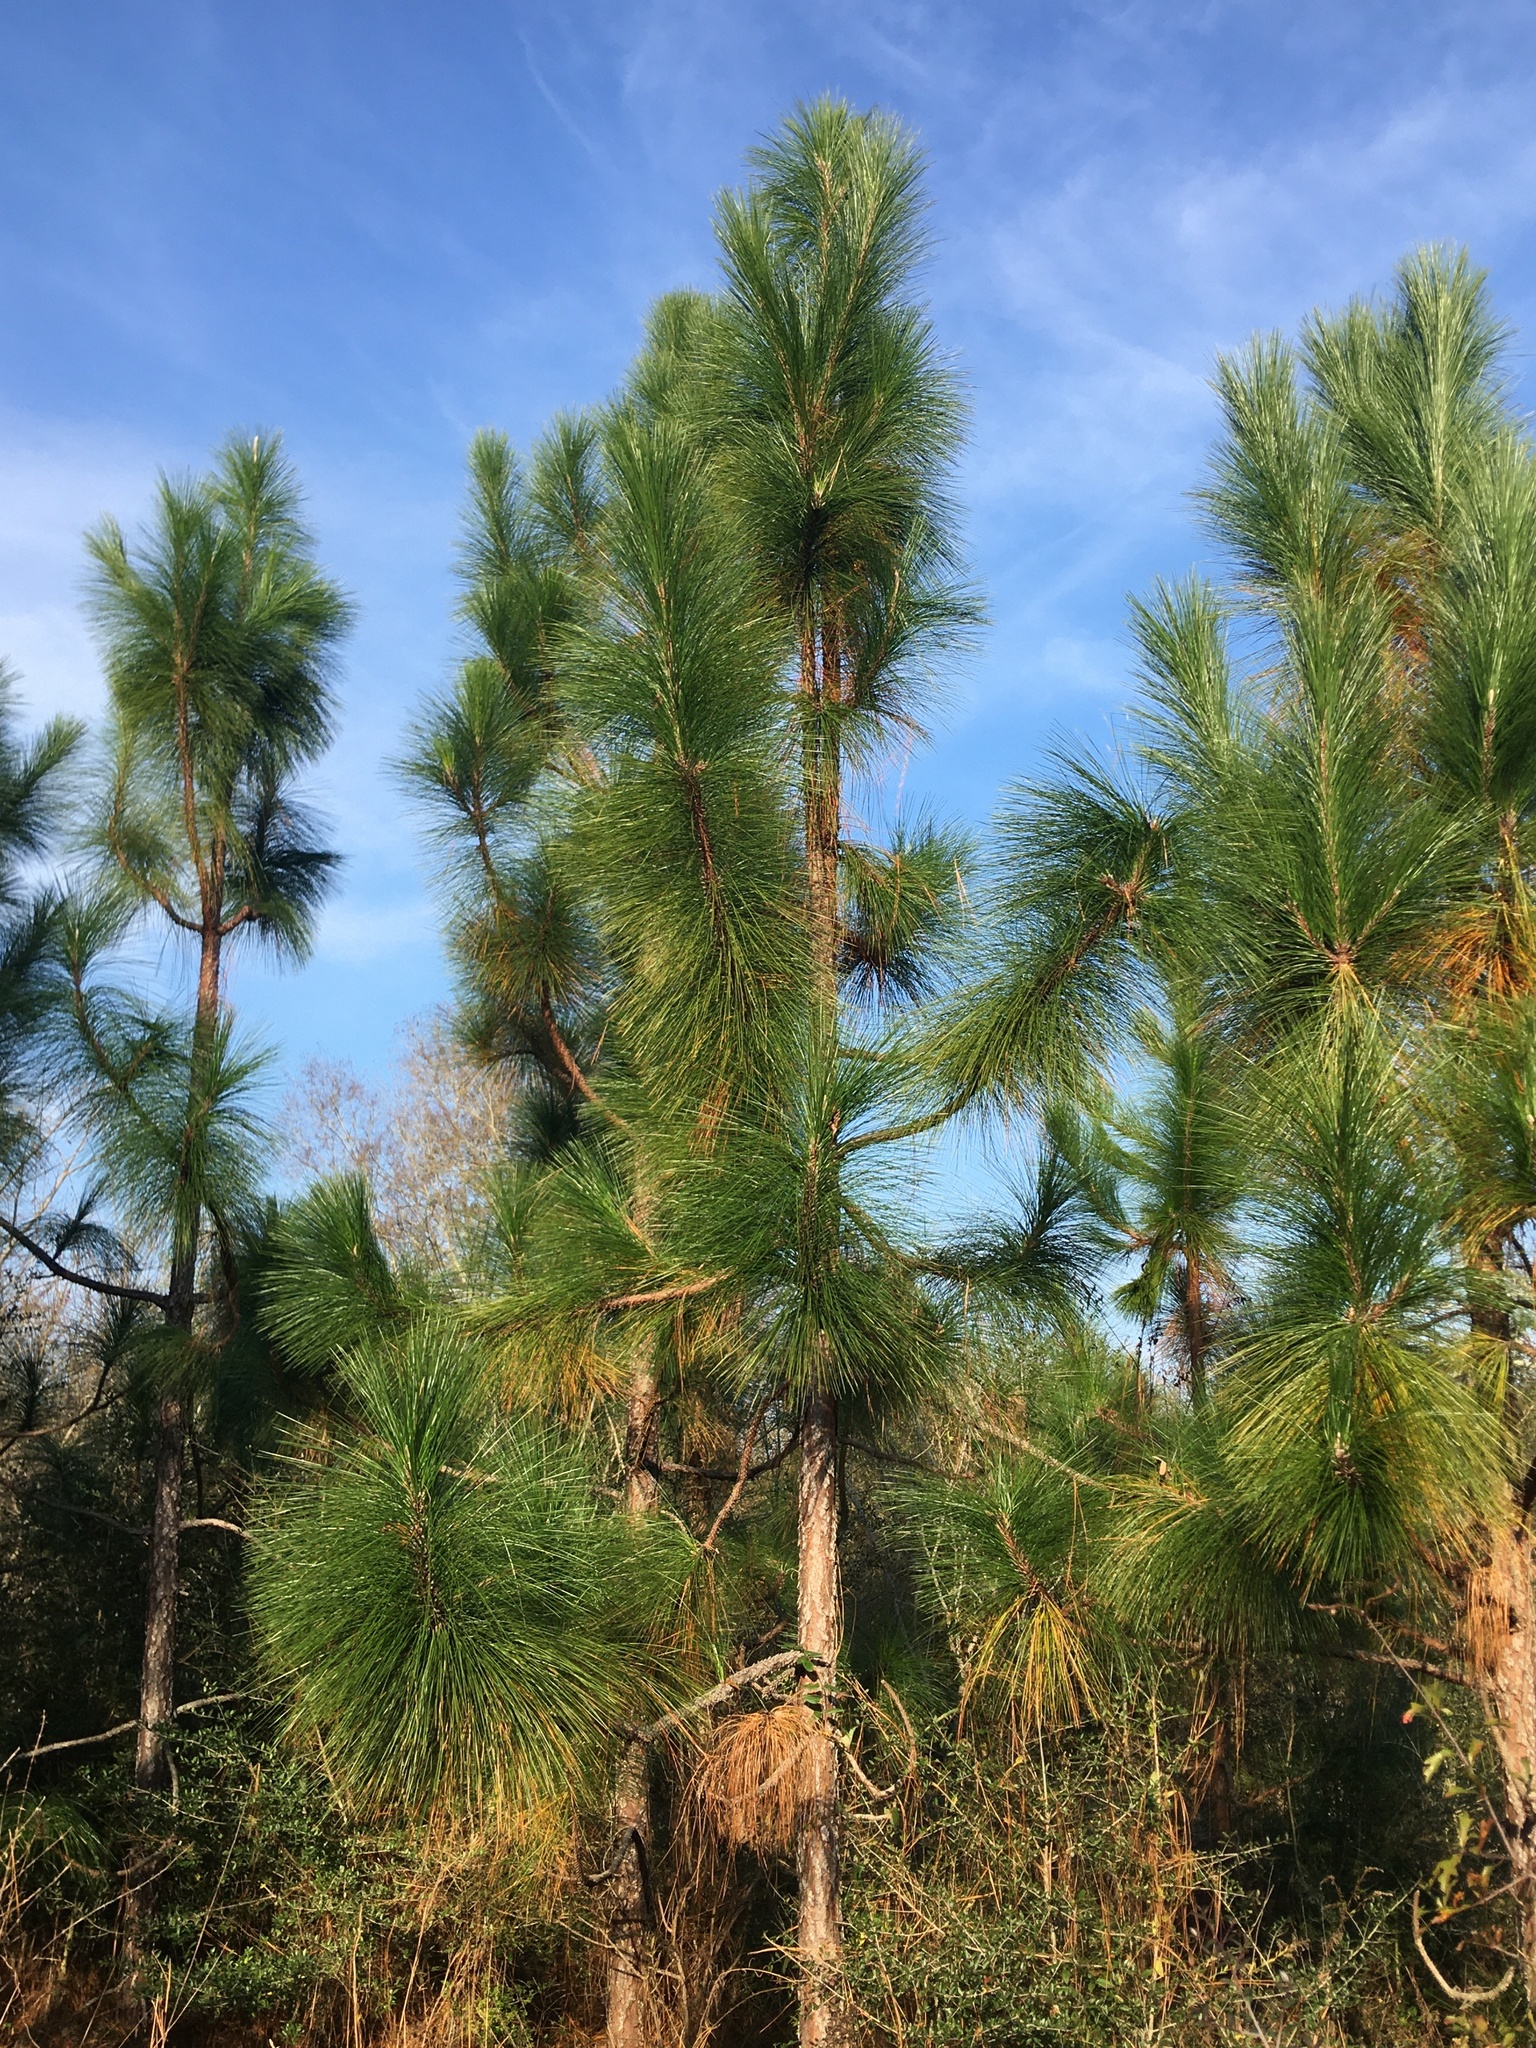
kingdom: Plantae
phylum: Tracheophyta
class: Pinopsida
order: Pinales
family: Pinaceae
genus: Pinus
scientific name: Pinus palustris
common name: Longleaf pine
